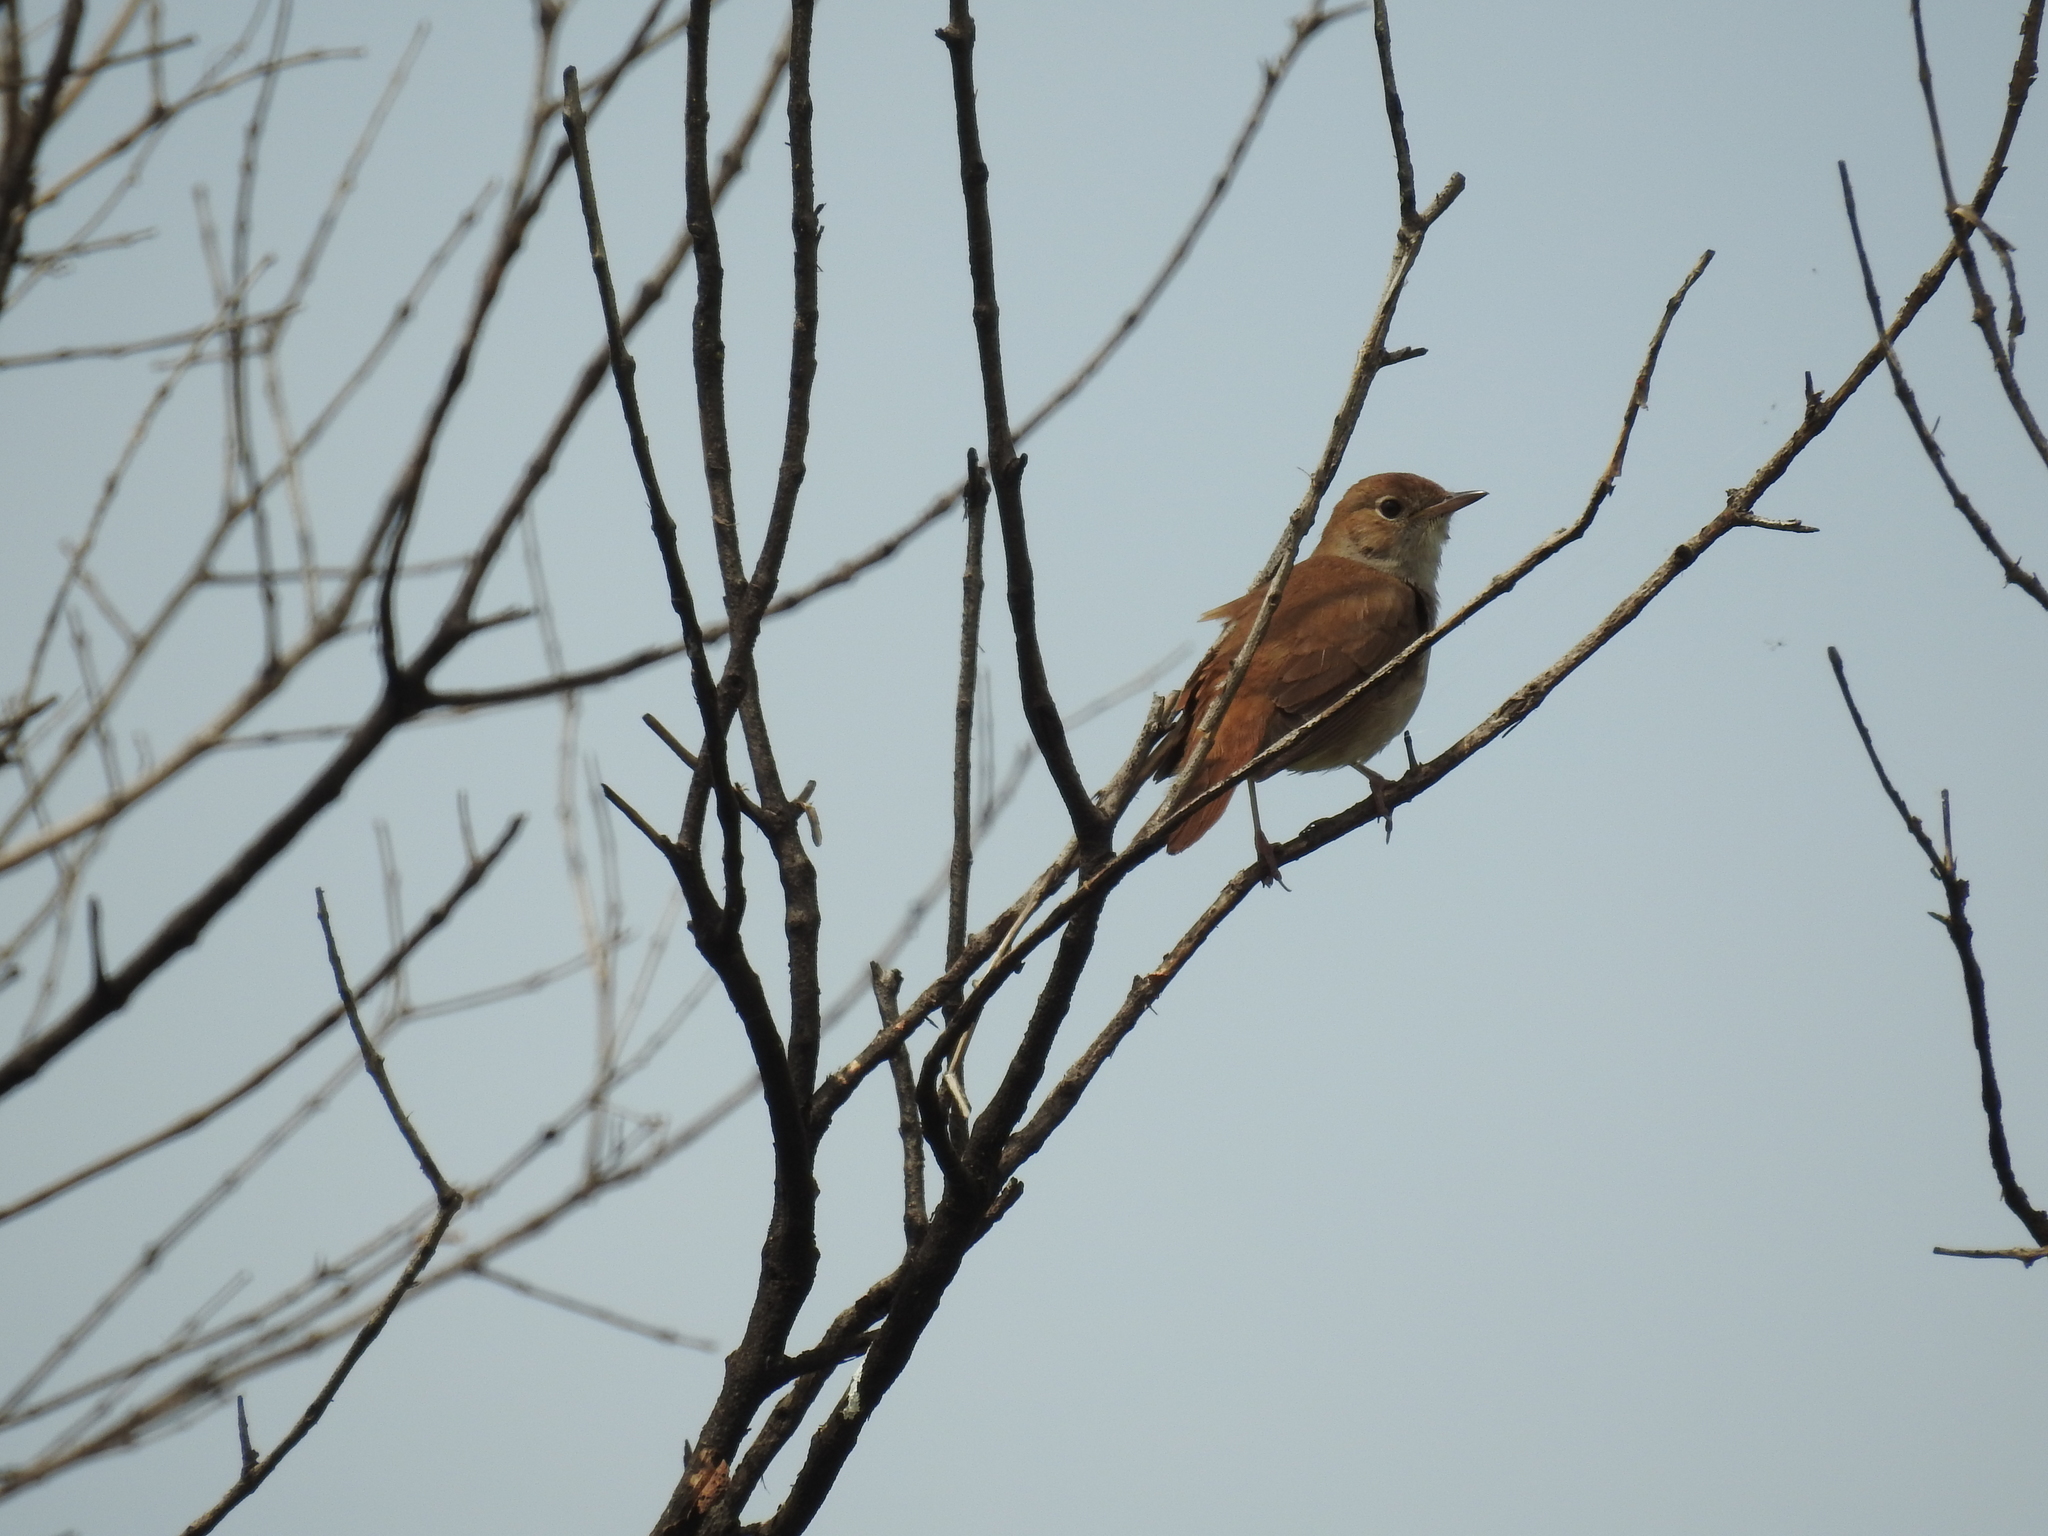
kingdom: Animalia
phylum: Chordata
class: Aves
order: Passeriformes
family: Muscicapidae
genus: Luscinia
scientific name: Luscinia megarhynchos
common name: Common nightingale
